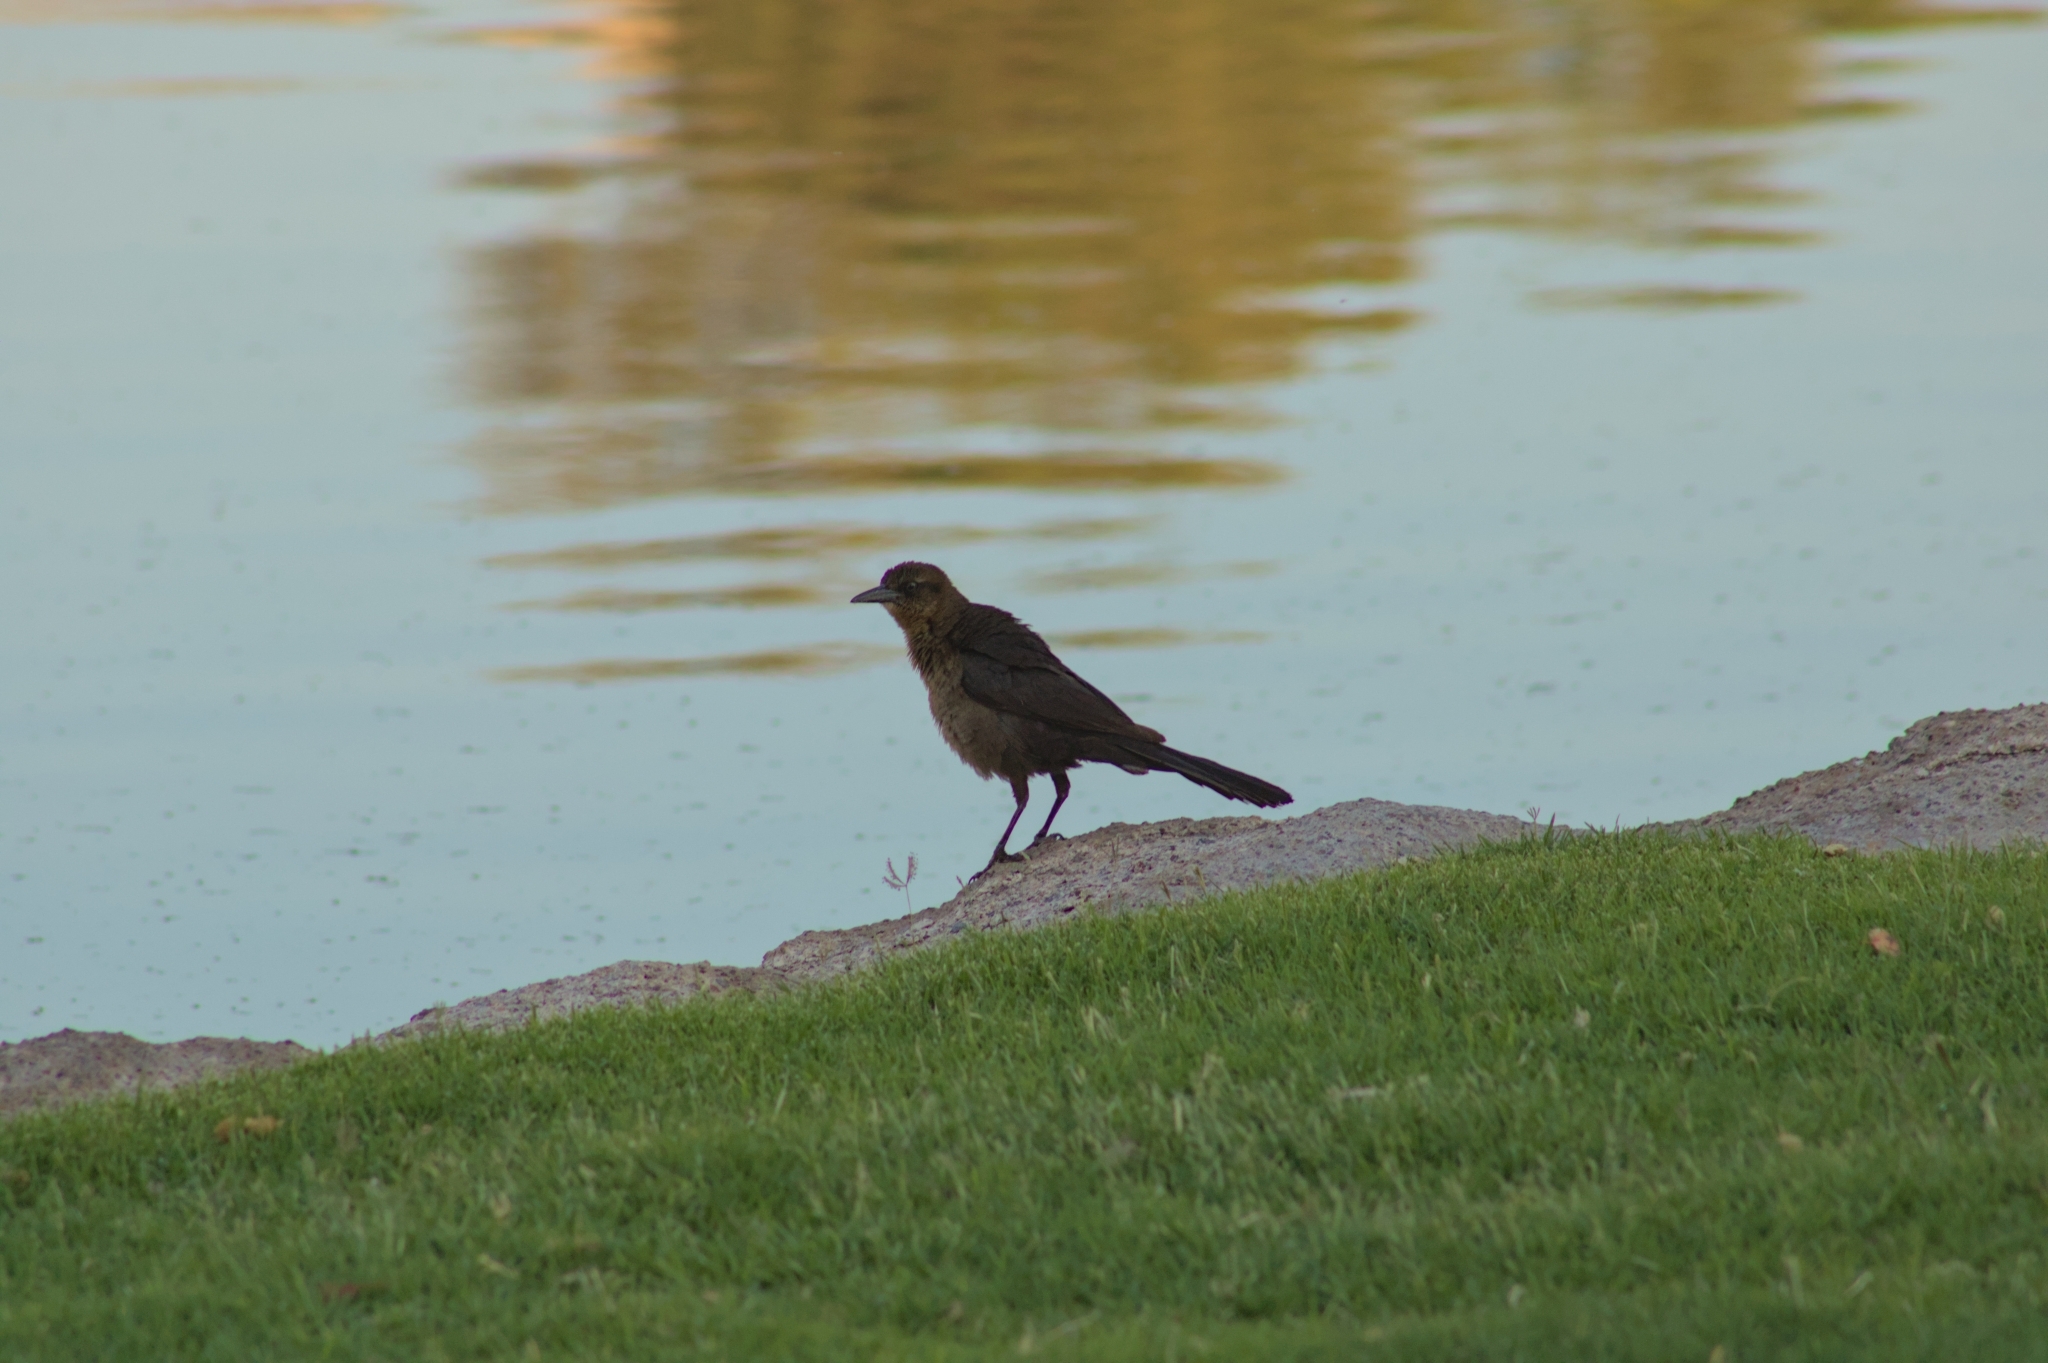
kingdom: Animalia
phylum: Chordata
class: Aves
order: Passeriformes
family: Icteridae
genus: Quiscalus
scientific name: Quiscalus mexicanus
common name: Great-tailed grackle
